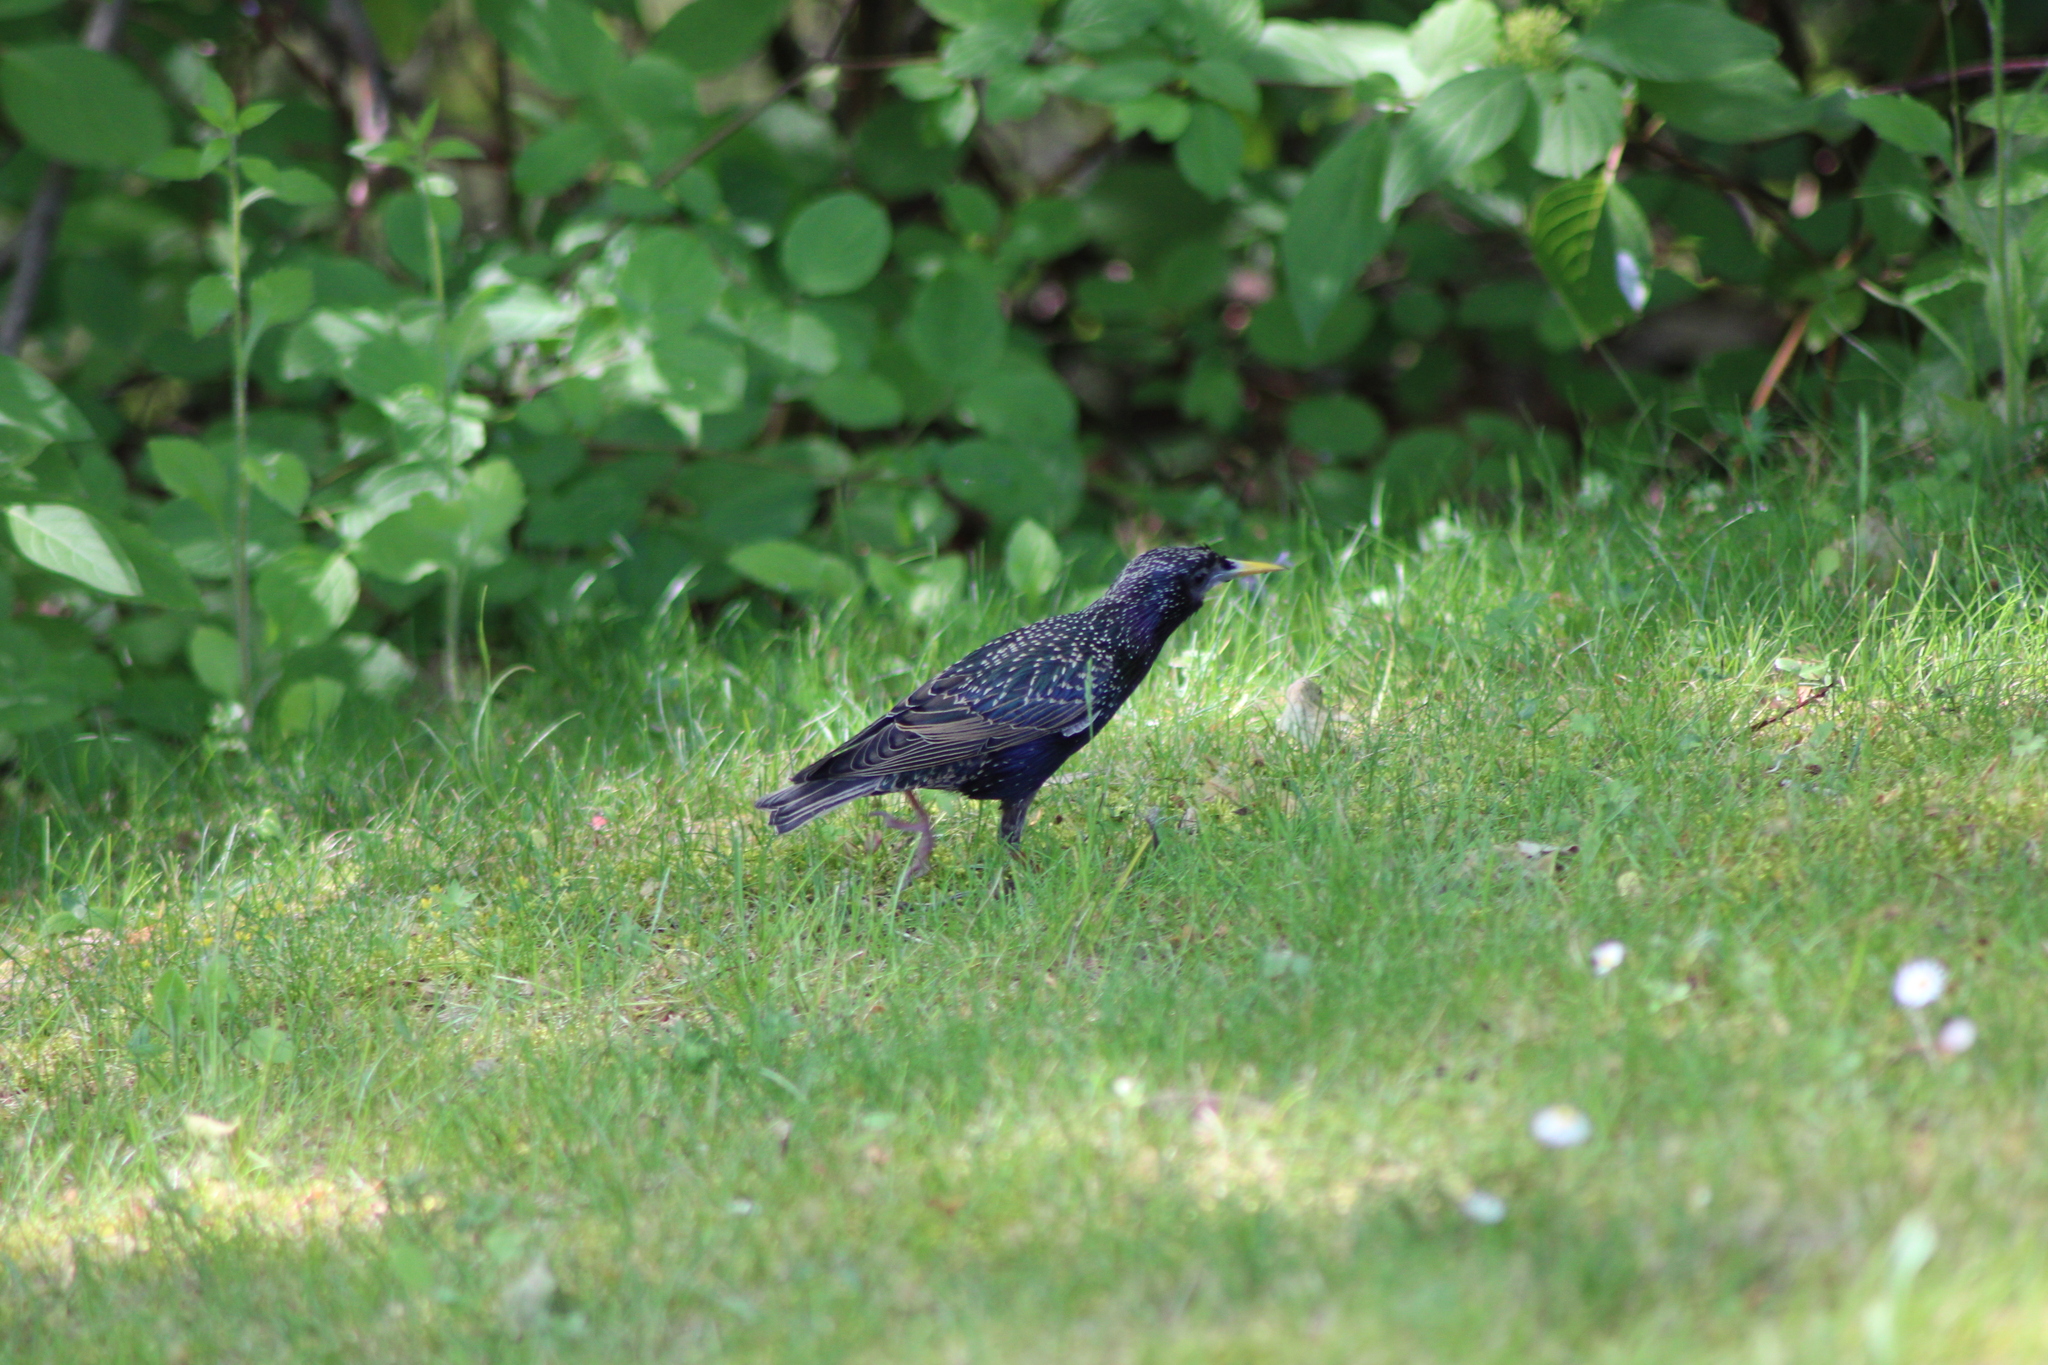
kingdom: Animalia
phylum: Chordata
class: Aves
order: Passeriformes
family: Sturnidae
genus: Sturnus
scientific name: Sturnus vulgaris
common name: Common starling
